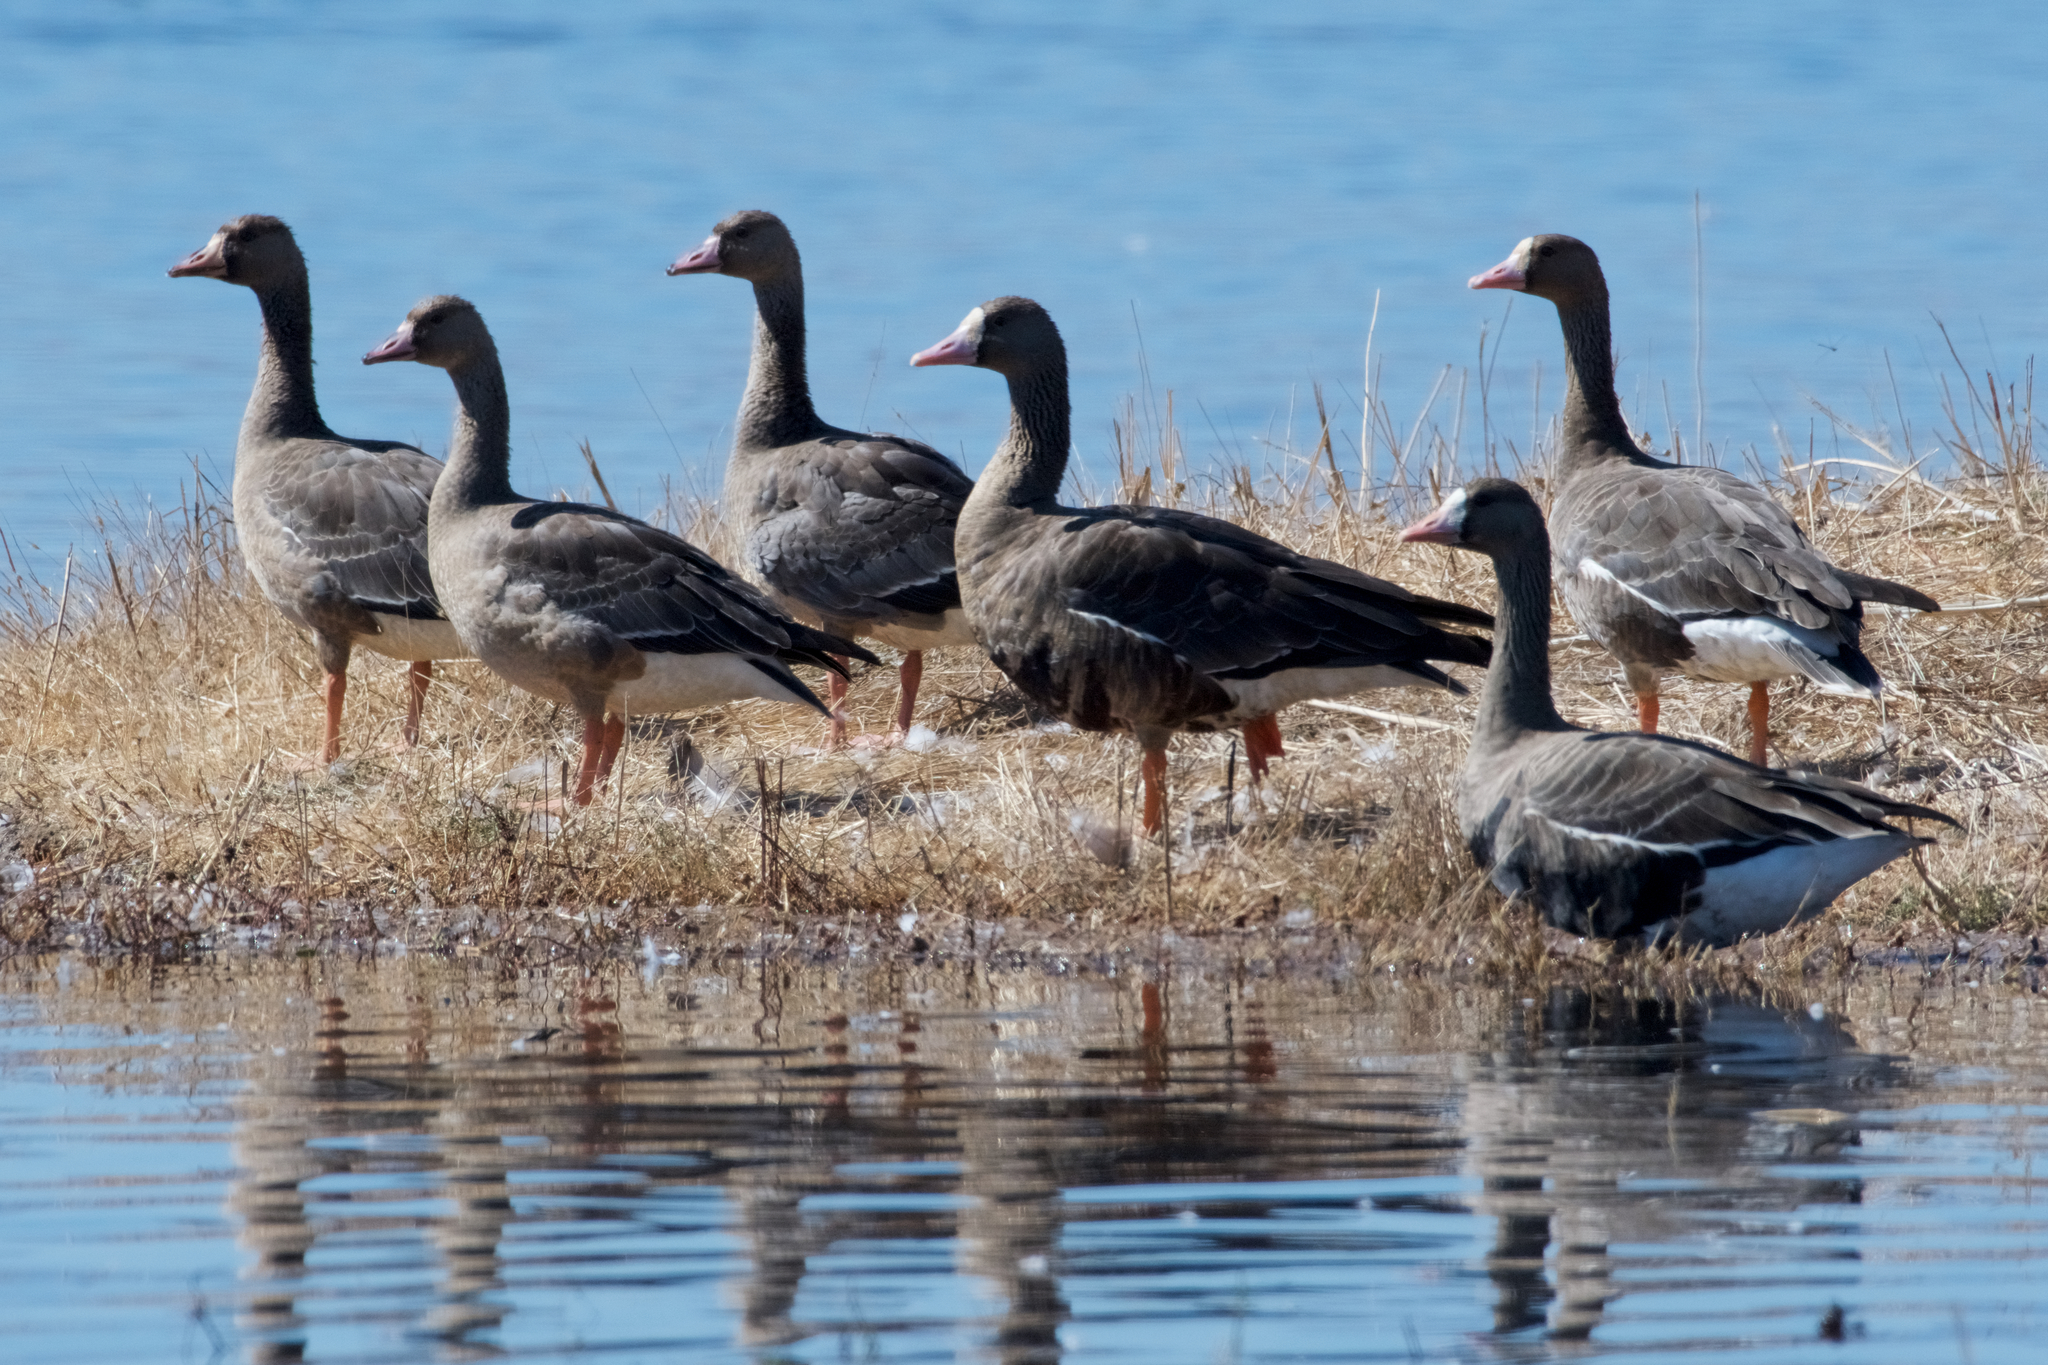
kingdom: Animalia
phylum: Chordata
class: Aves
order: Anseriformes
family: Anatidae
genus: Anser
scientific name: Anser albifrons
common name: Greater white-fronted goose
